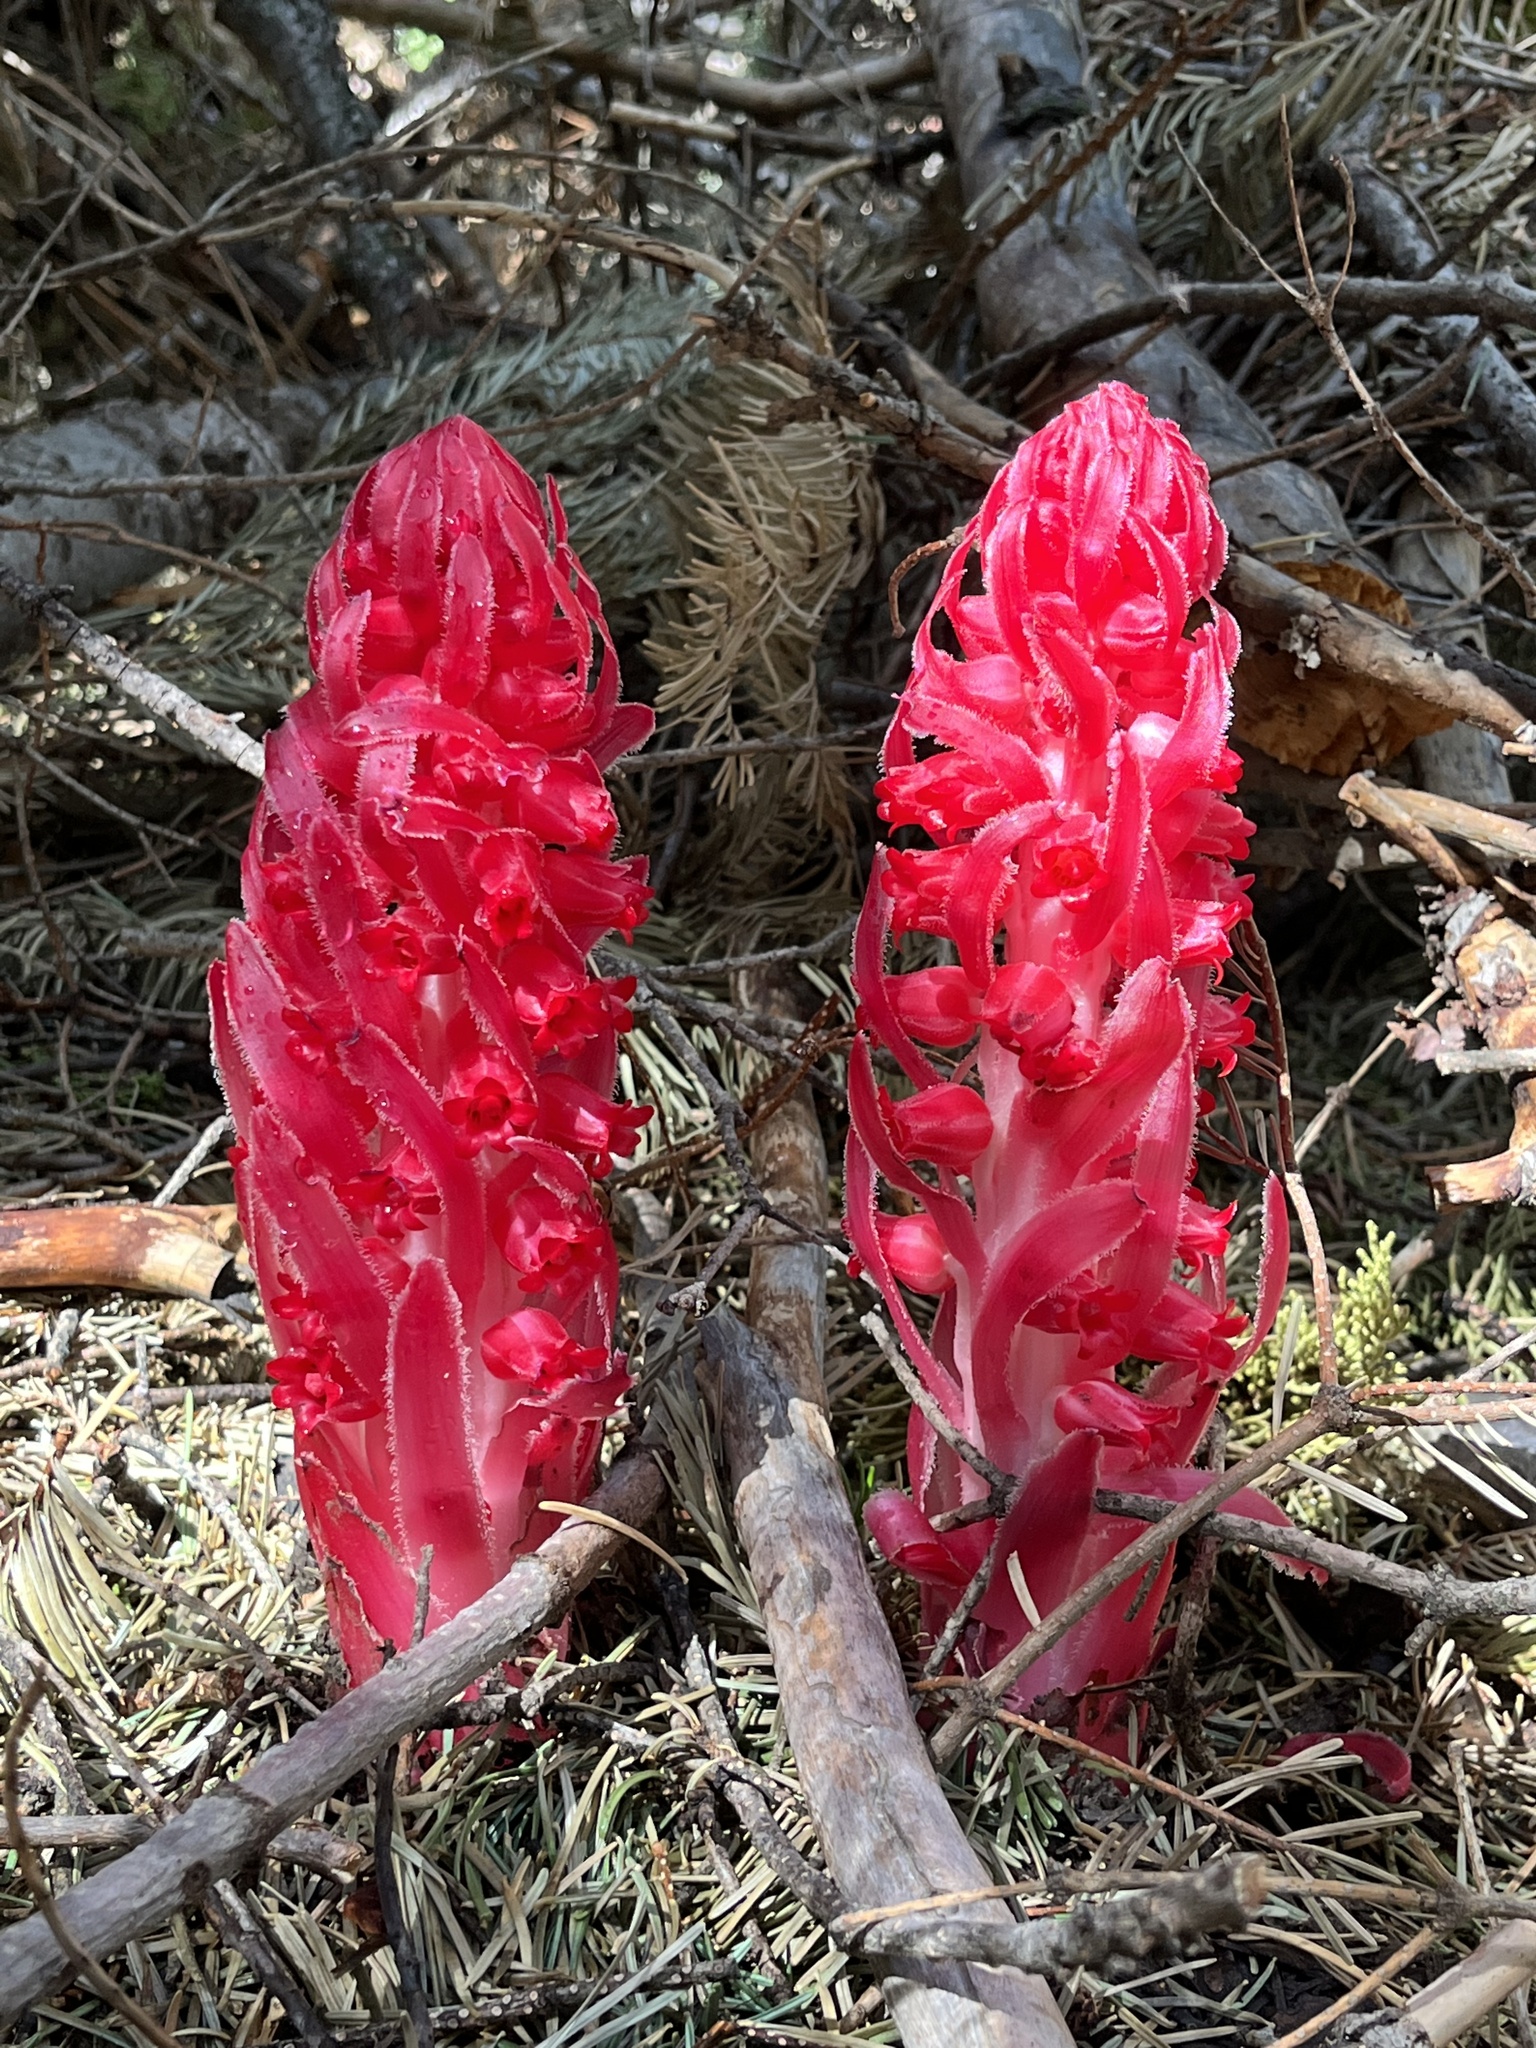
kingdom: Plantae
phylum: Tracheophyta
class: Magnoliopsida
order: Ericales
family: Ericaceae
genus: Sarcodes
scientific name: Sarcodes sanguinea
